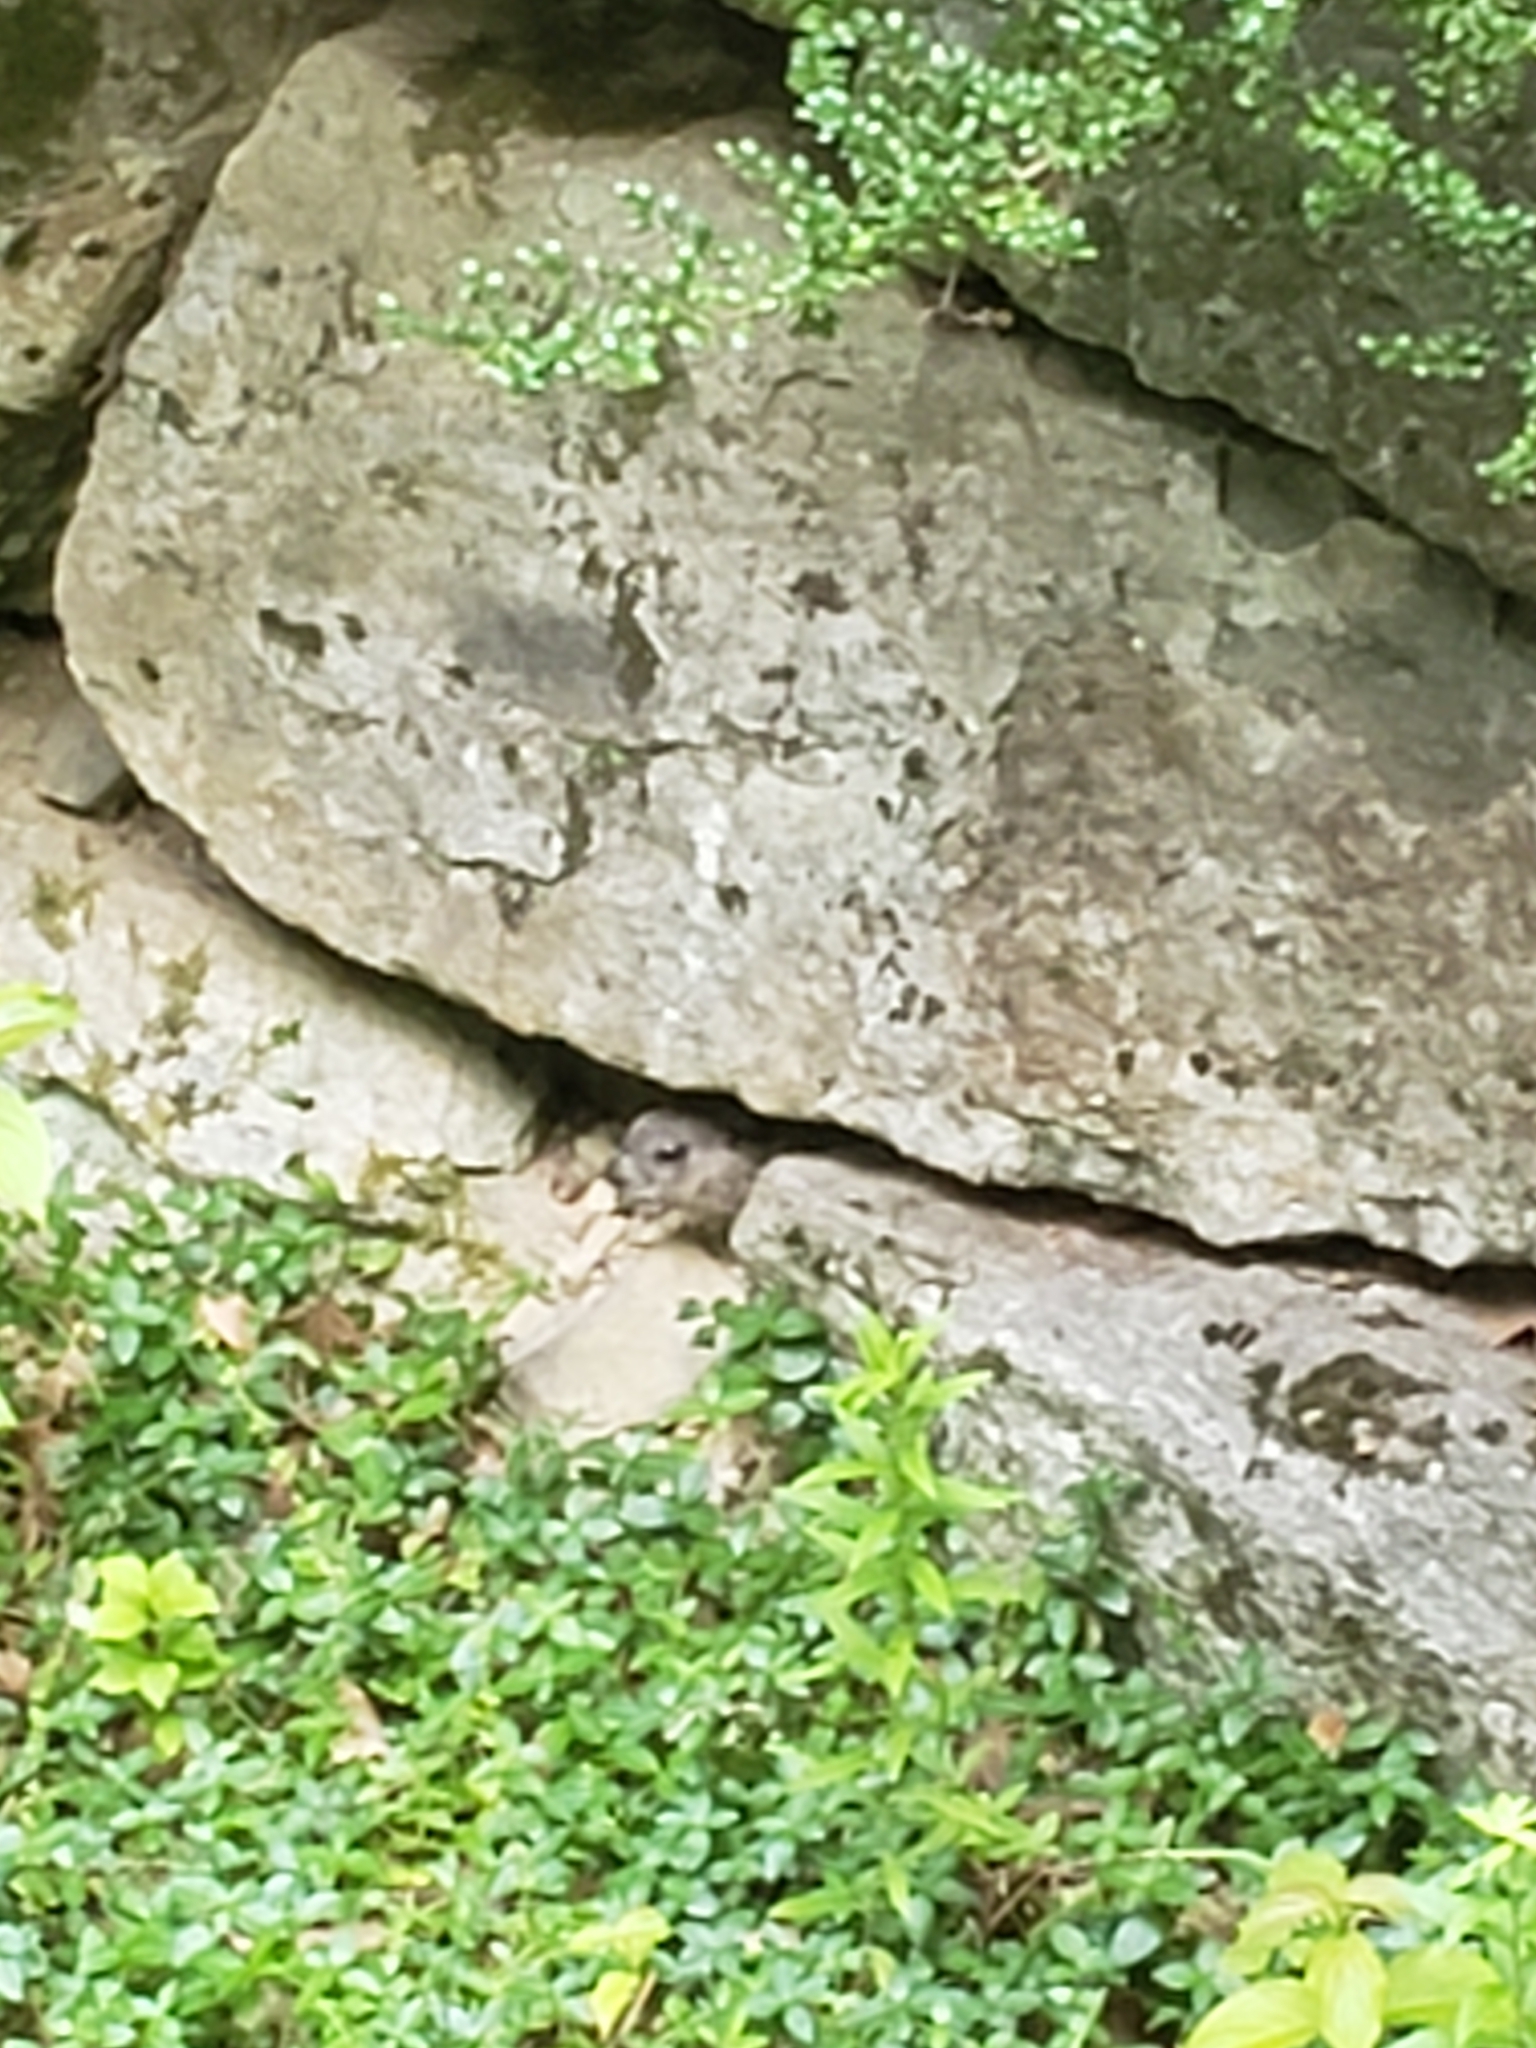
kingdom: Animalia
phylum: Chordata
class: Mammalia
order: Rodentia
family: Sciuridae
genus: Marmota
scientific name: Marmota monax
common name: Groundhog
